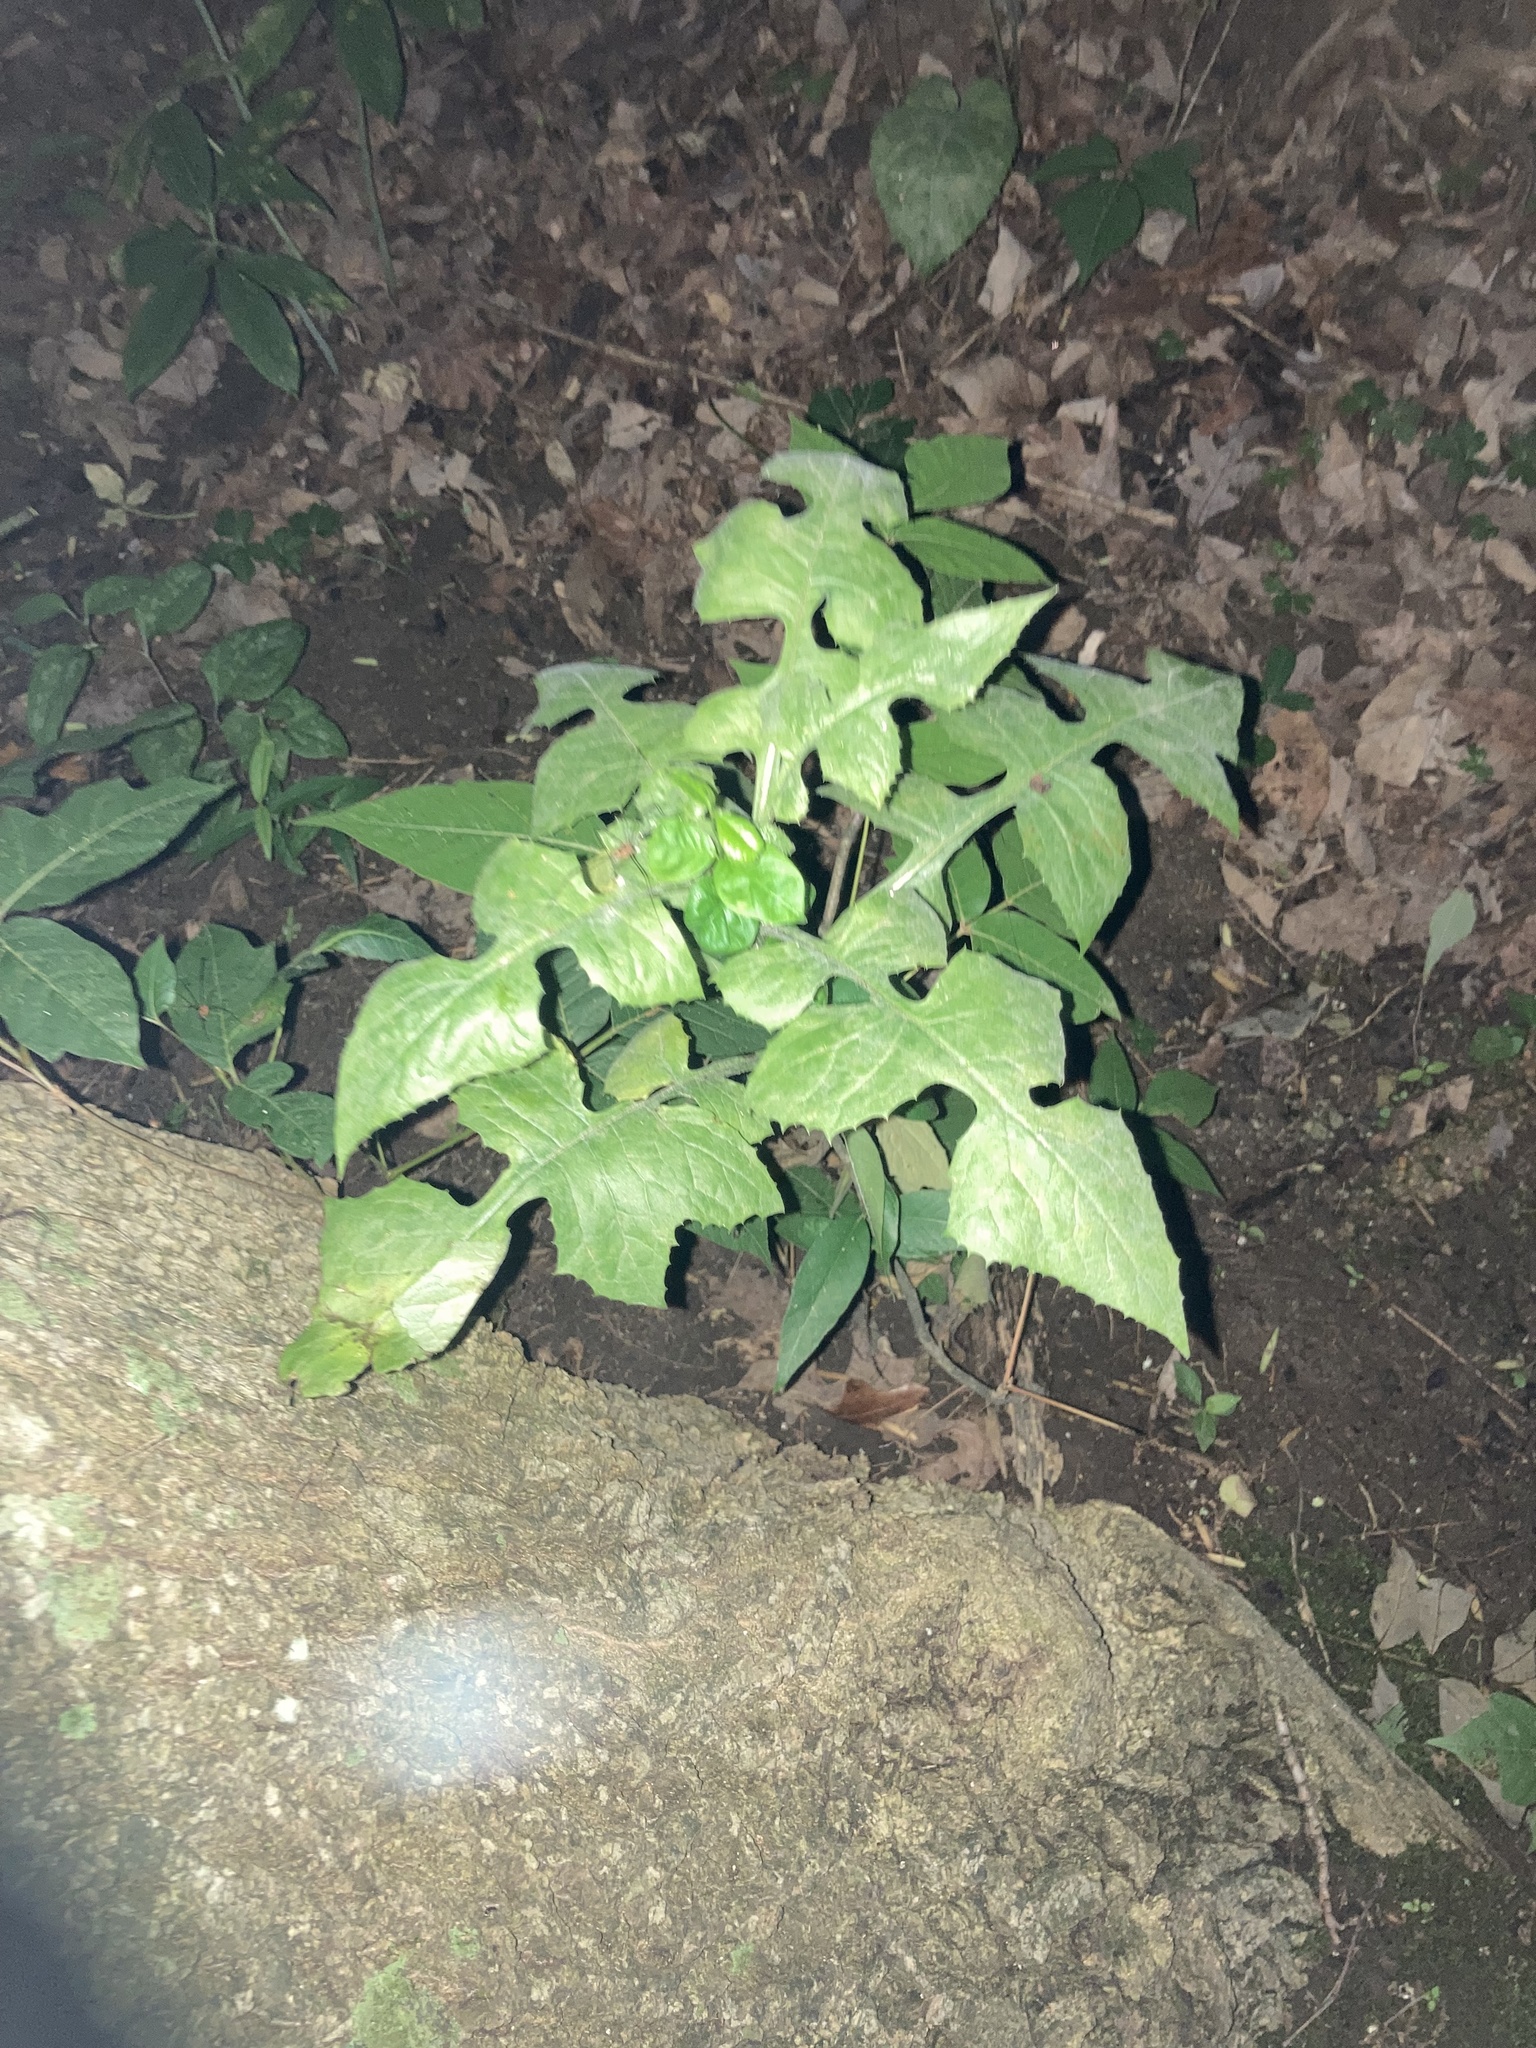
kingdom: Plantae
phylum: Tracheophyta
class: Magnoliopsida
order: Asterales
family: Asteraceae
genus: Lactuca
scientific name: Lactuca floridana
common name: Woodland lettuce
